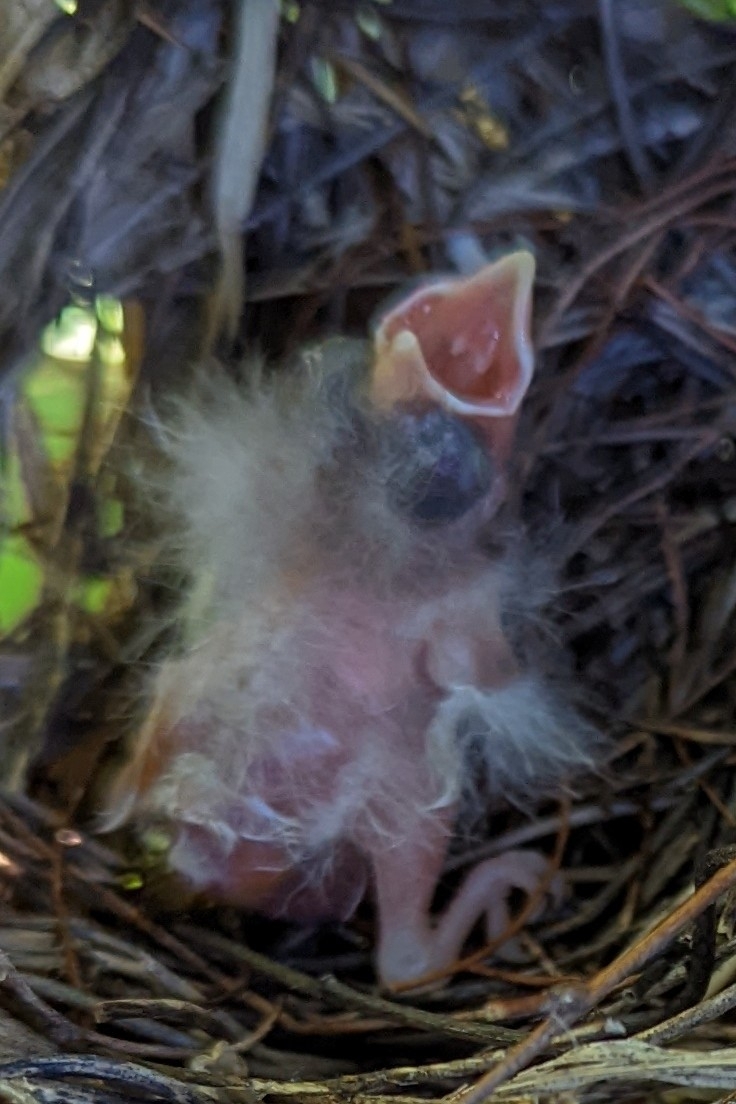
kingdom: Animalia
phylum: Chordata
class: Aves
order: Passeriformes
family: Cardinalidae
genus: Cardinalis
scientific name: Cardinalis cardinalis
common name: Northern cardinal
